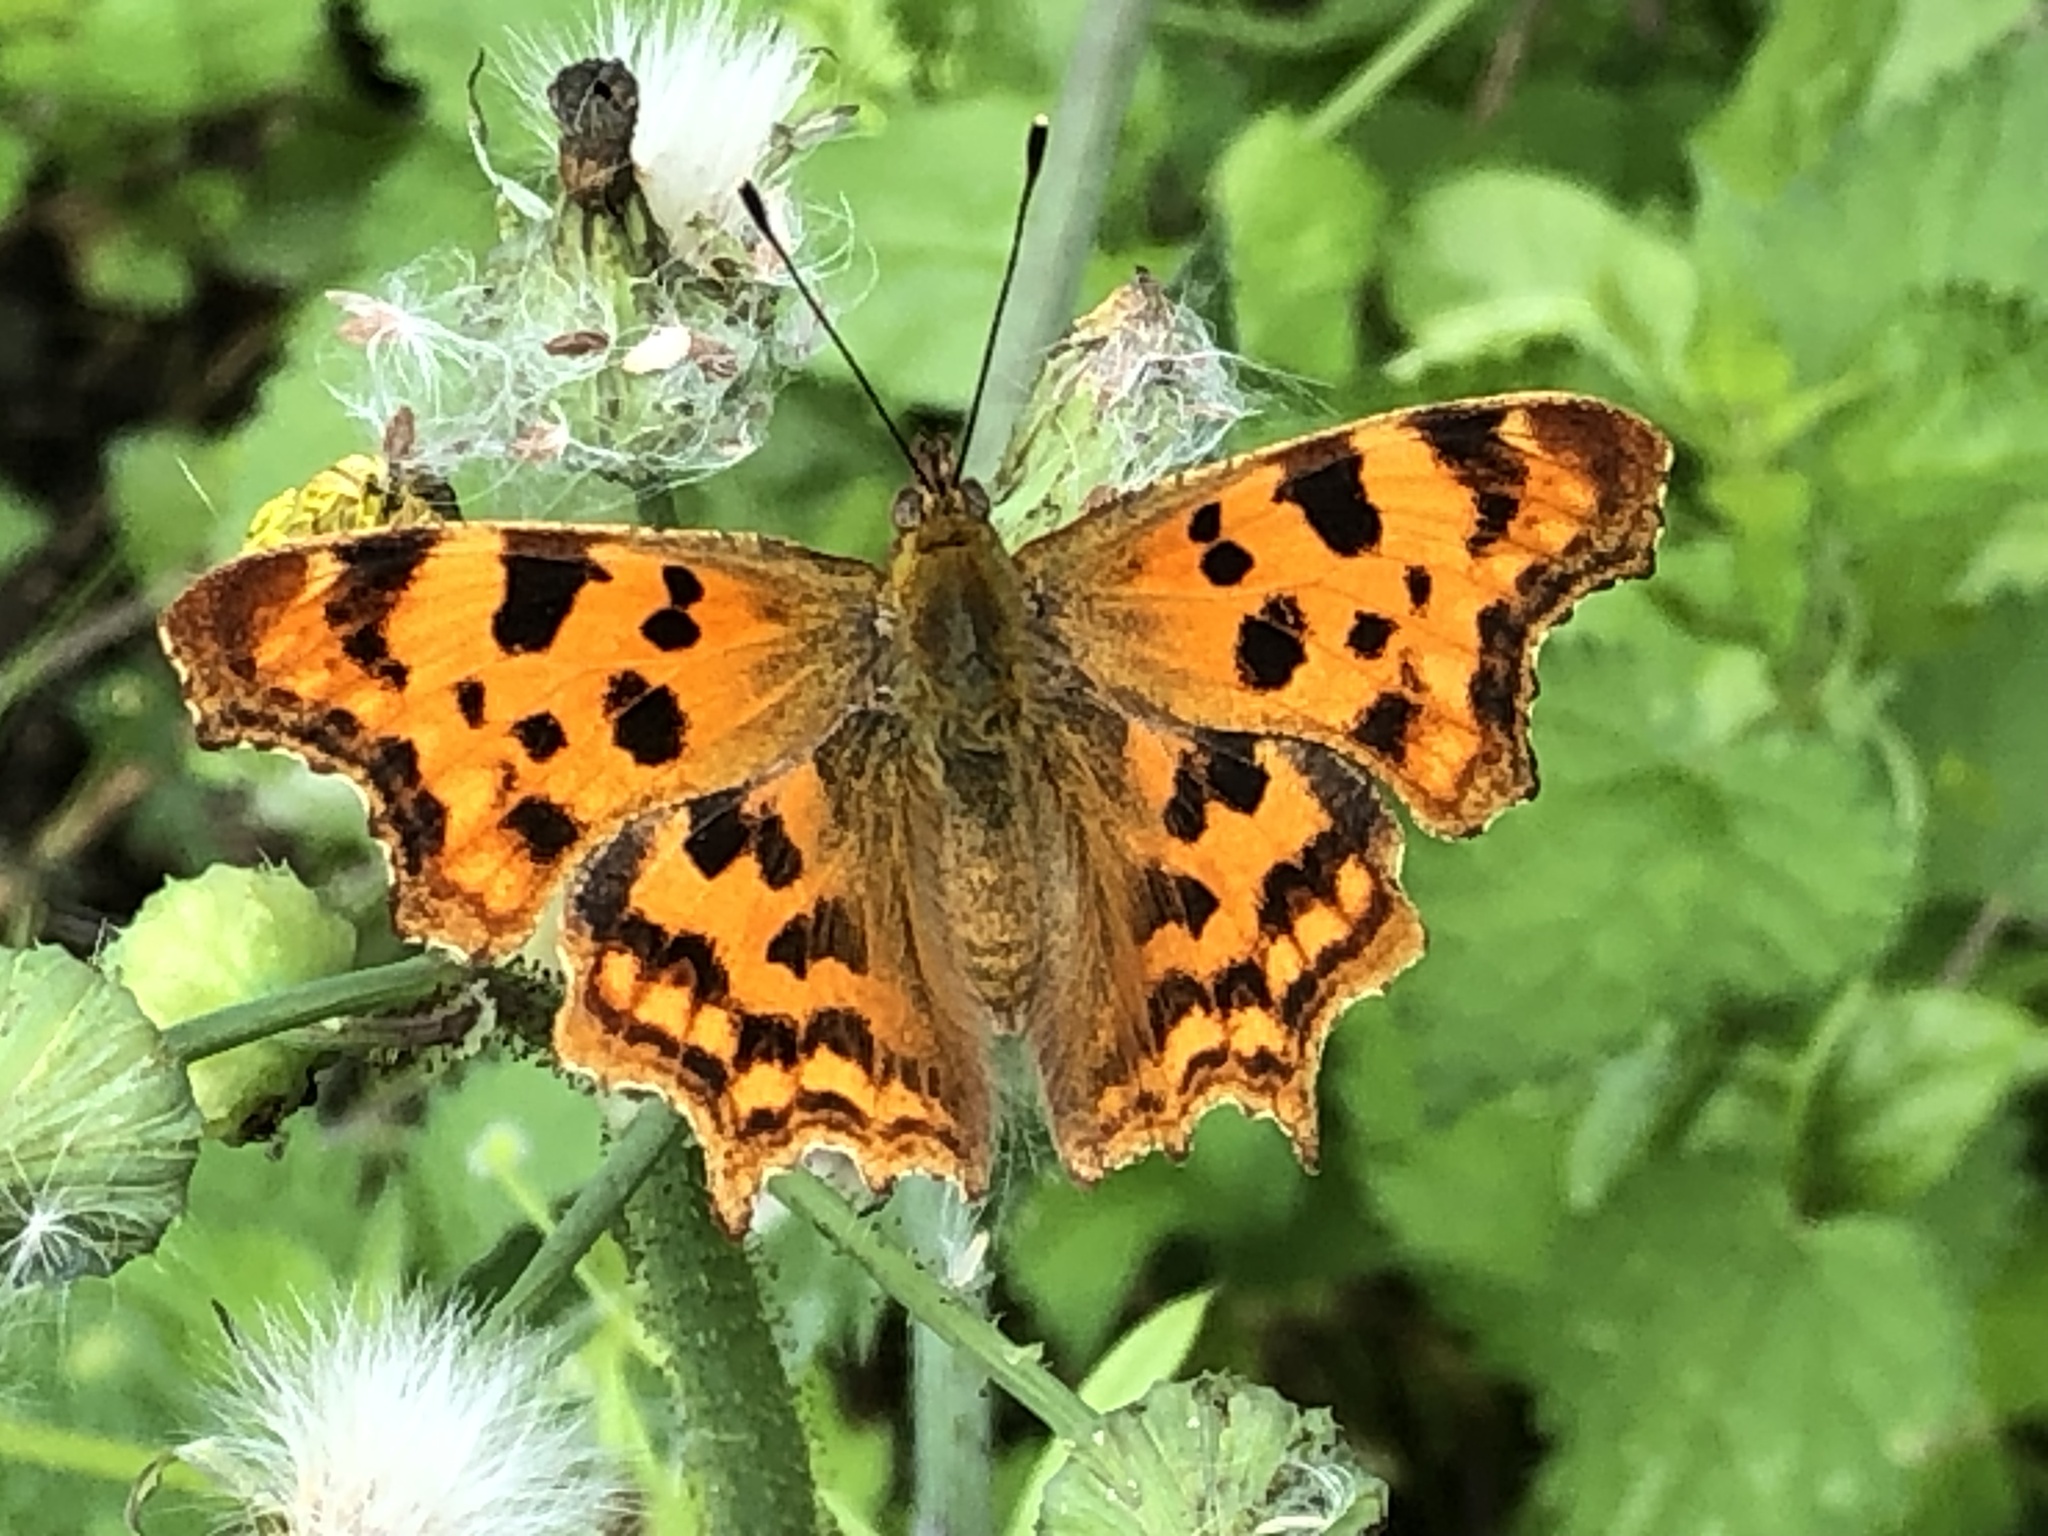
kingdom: Animalia
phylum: Arthropoda
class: Insecta
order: Lepidoptera
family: Nymphalidae
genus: Polygonia
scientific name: Polygonia c-album
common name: Comma
